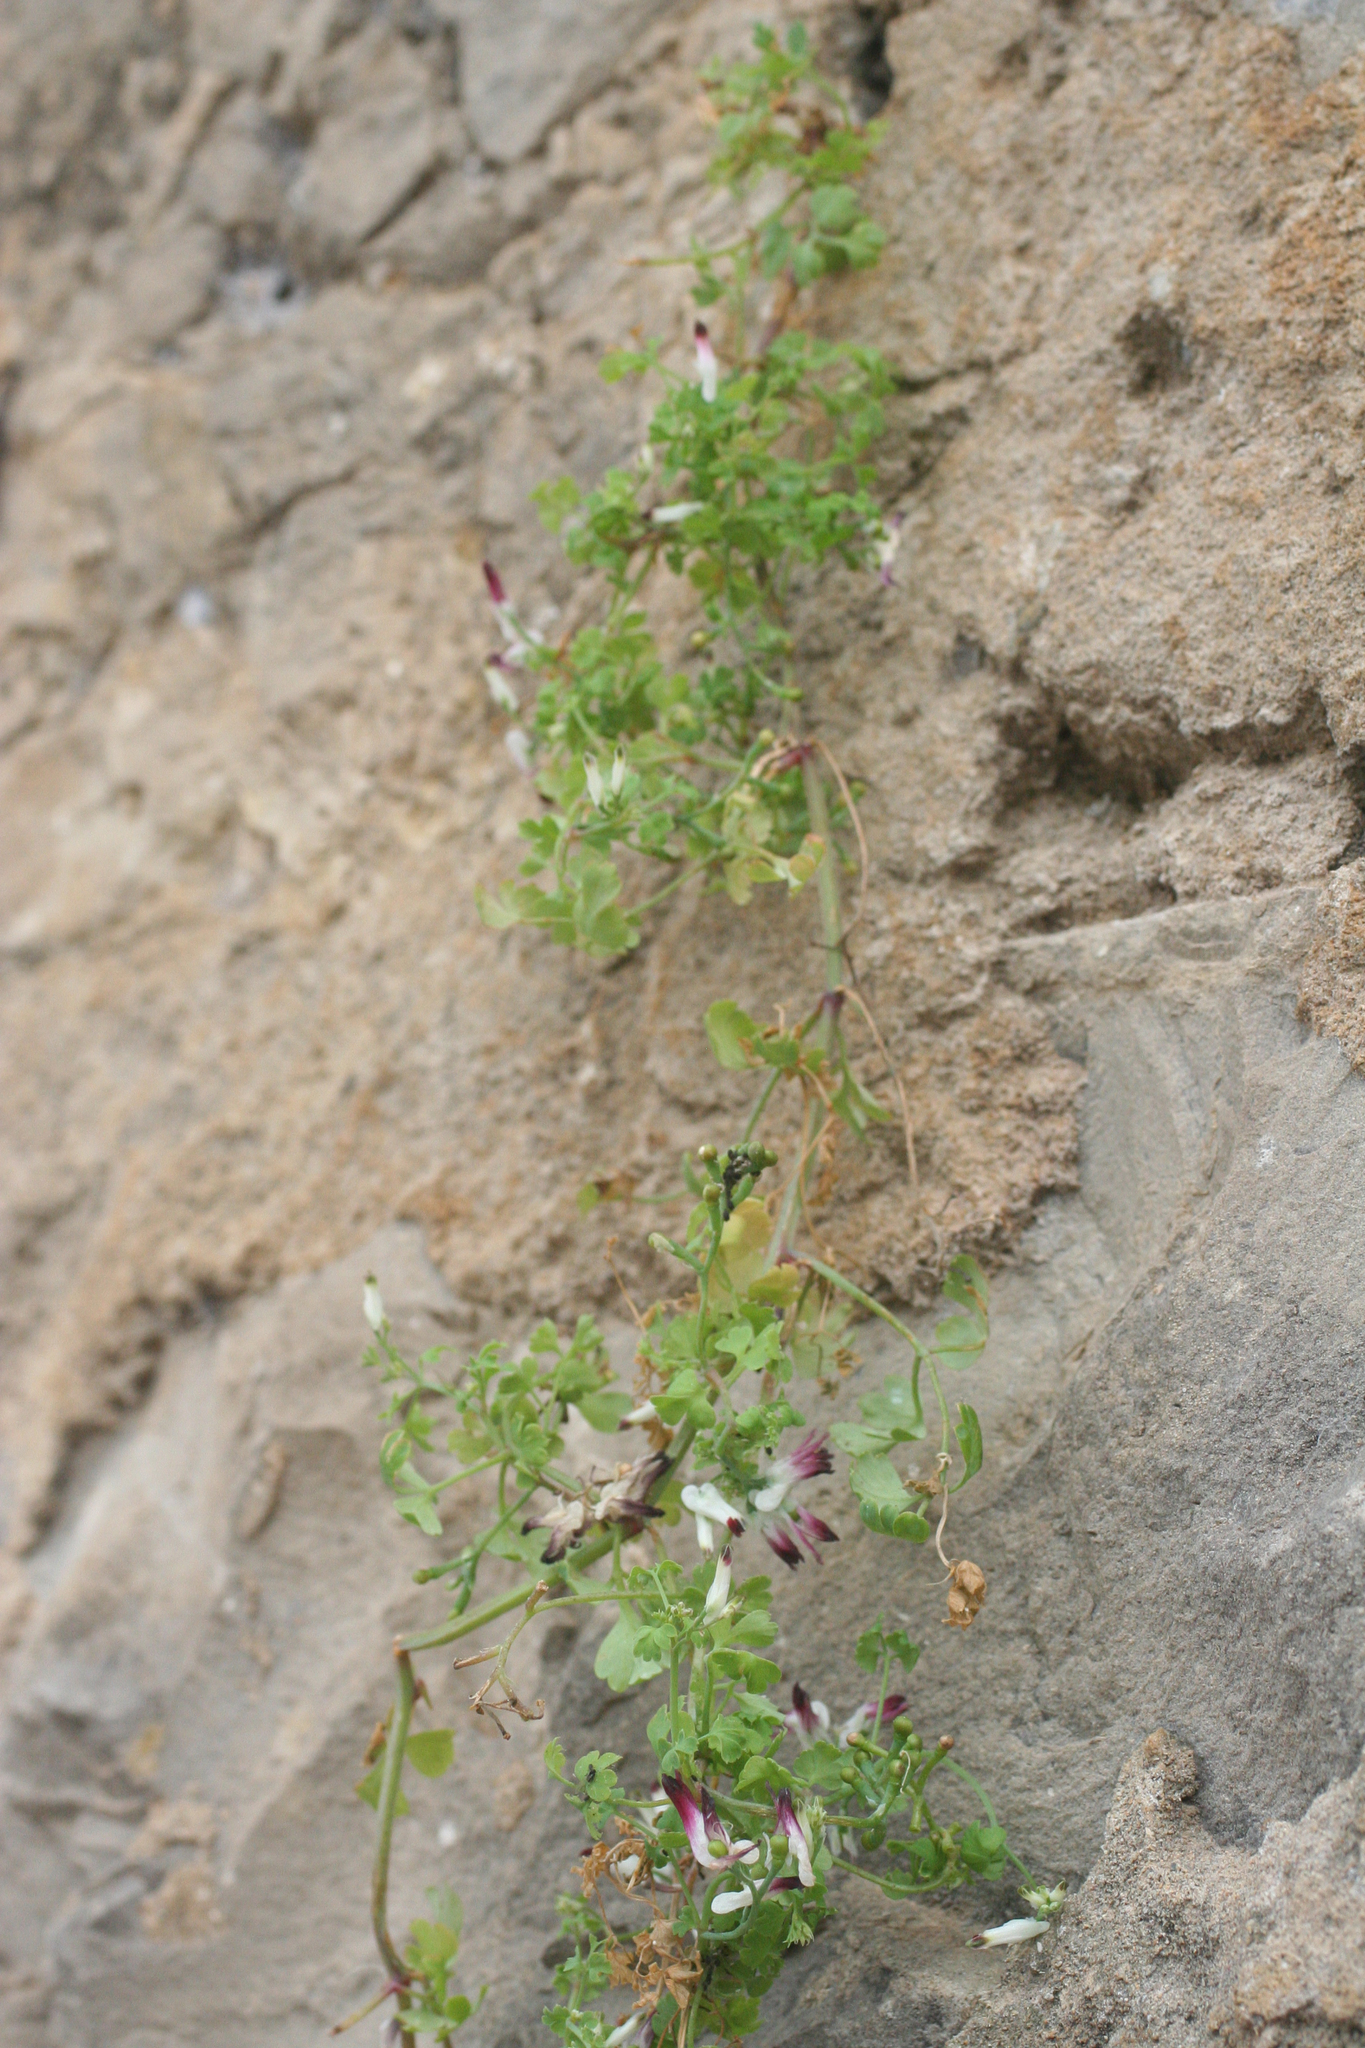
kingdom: Plantae
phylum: Tracheophyta
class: Magnoliopsida
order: Ranunculales
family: Papaveraceae
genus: Fumaria
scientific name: Fumaria capreolata
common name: White ramping-fumitory
